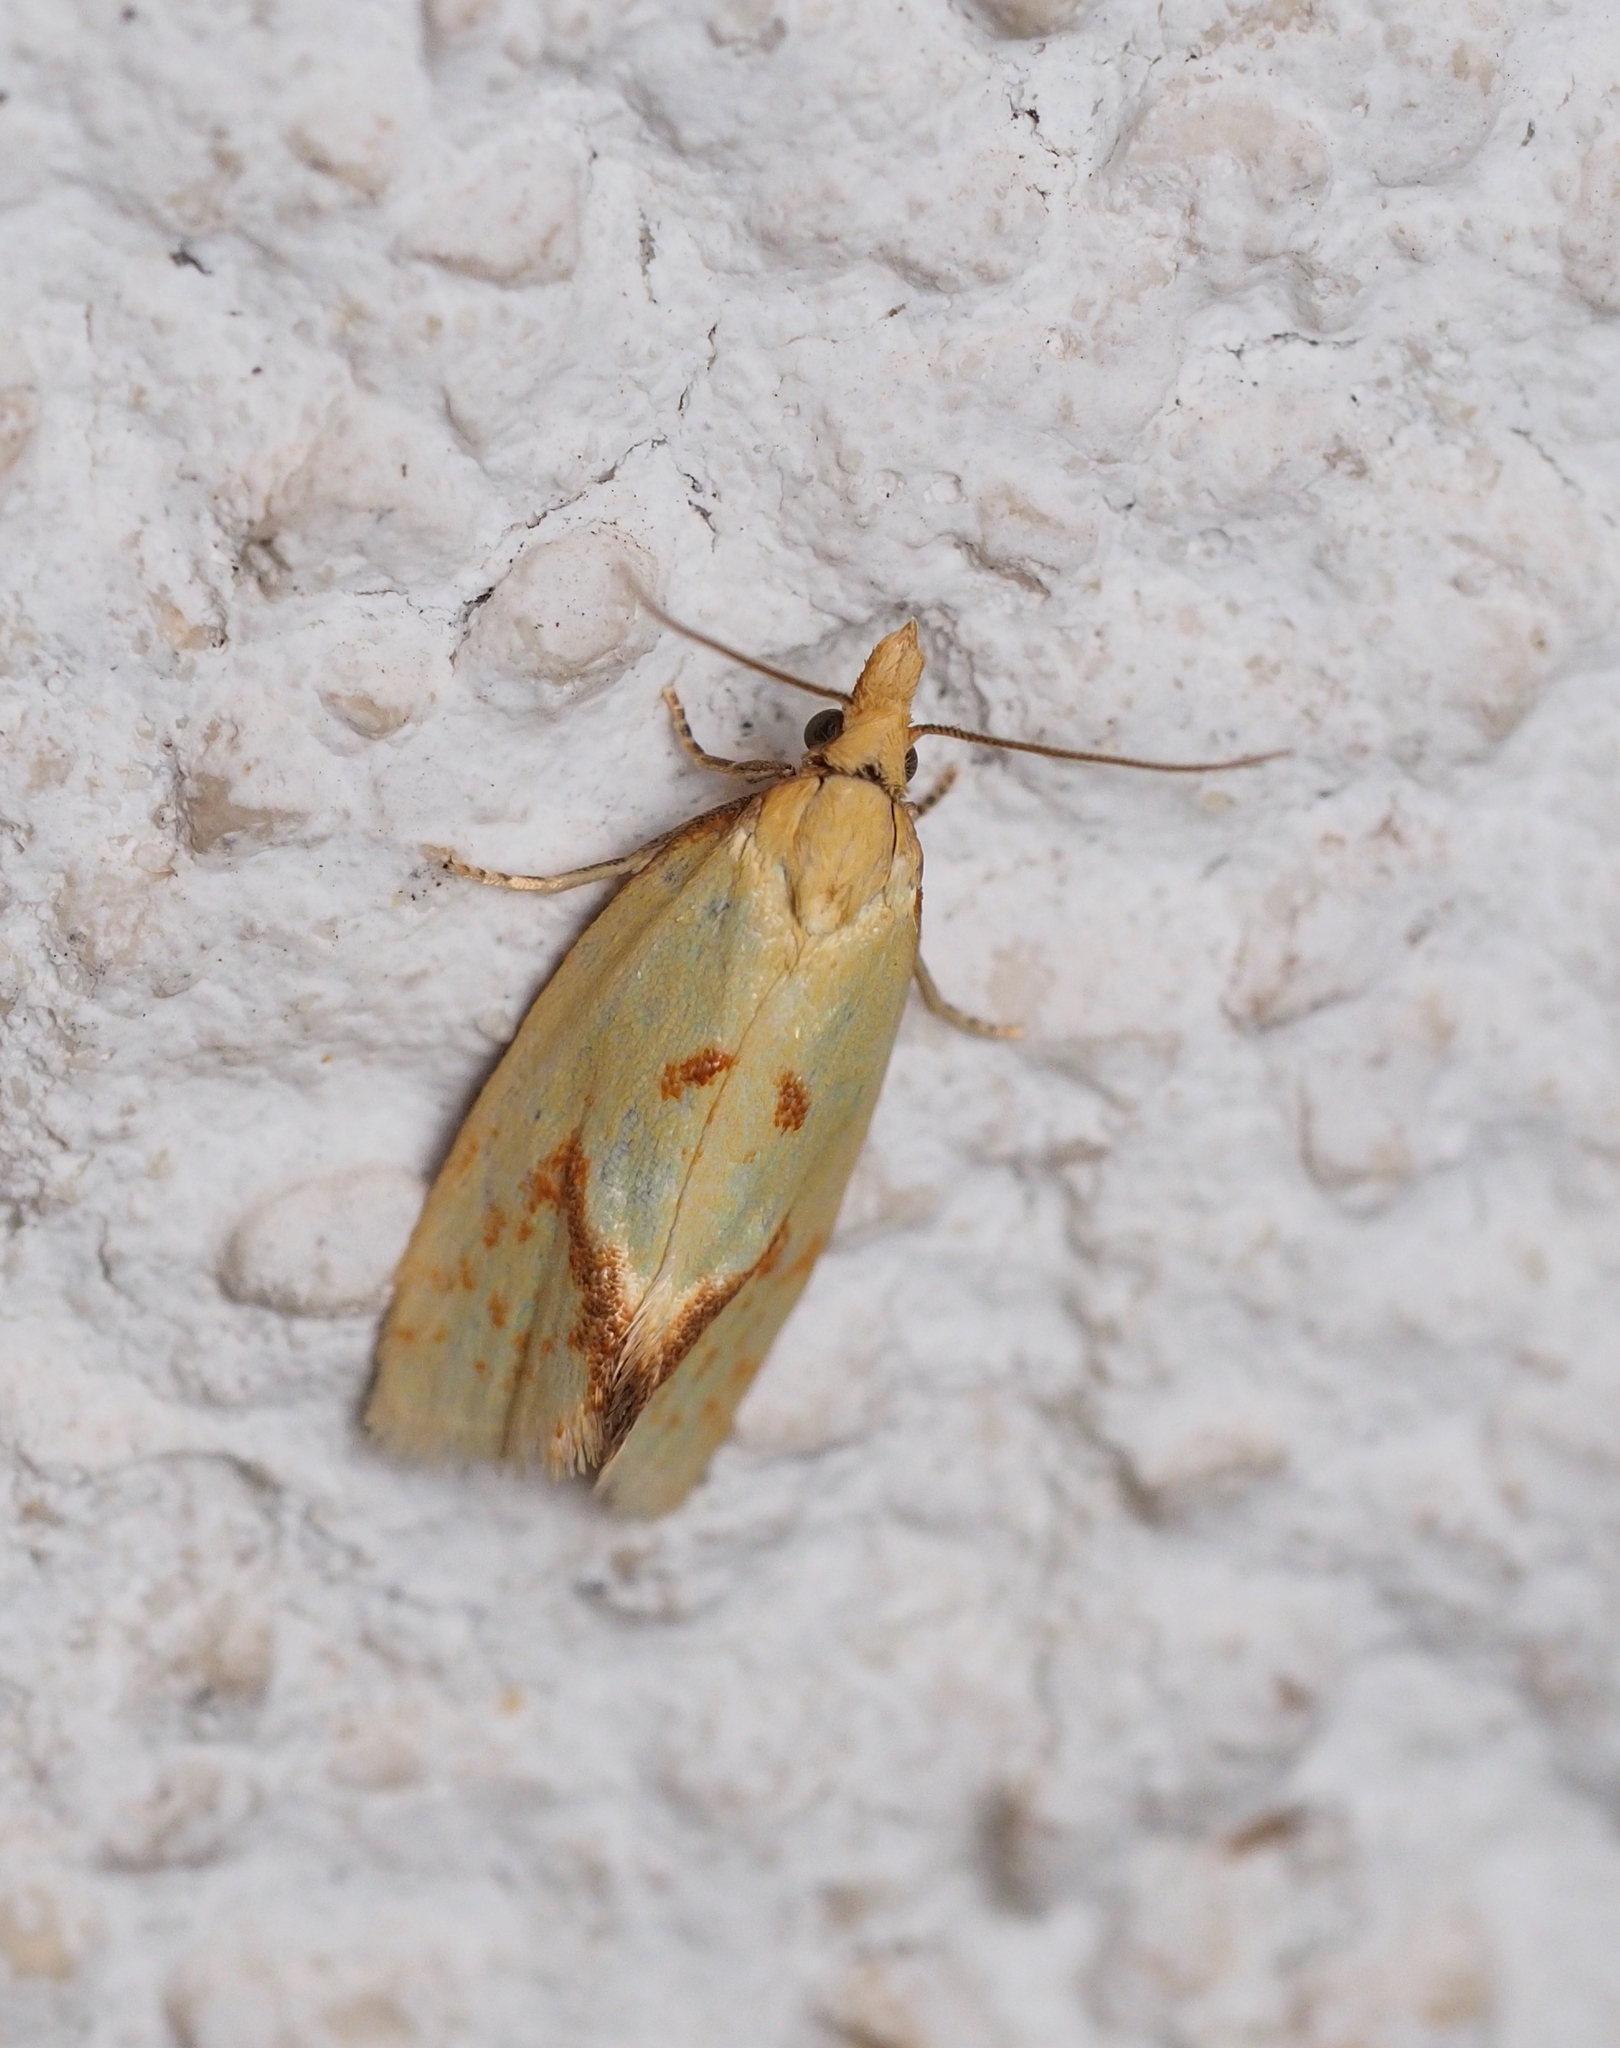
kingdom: Animalia
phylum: Arthropoda
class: Insecta
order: Lepidoptera
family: Tortricidae
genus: Agapeta
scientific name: Agapeta hamana
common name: Common yellow conch
